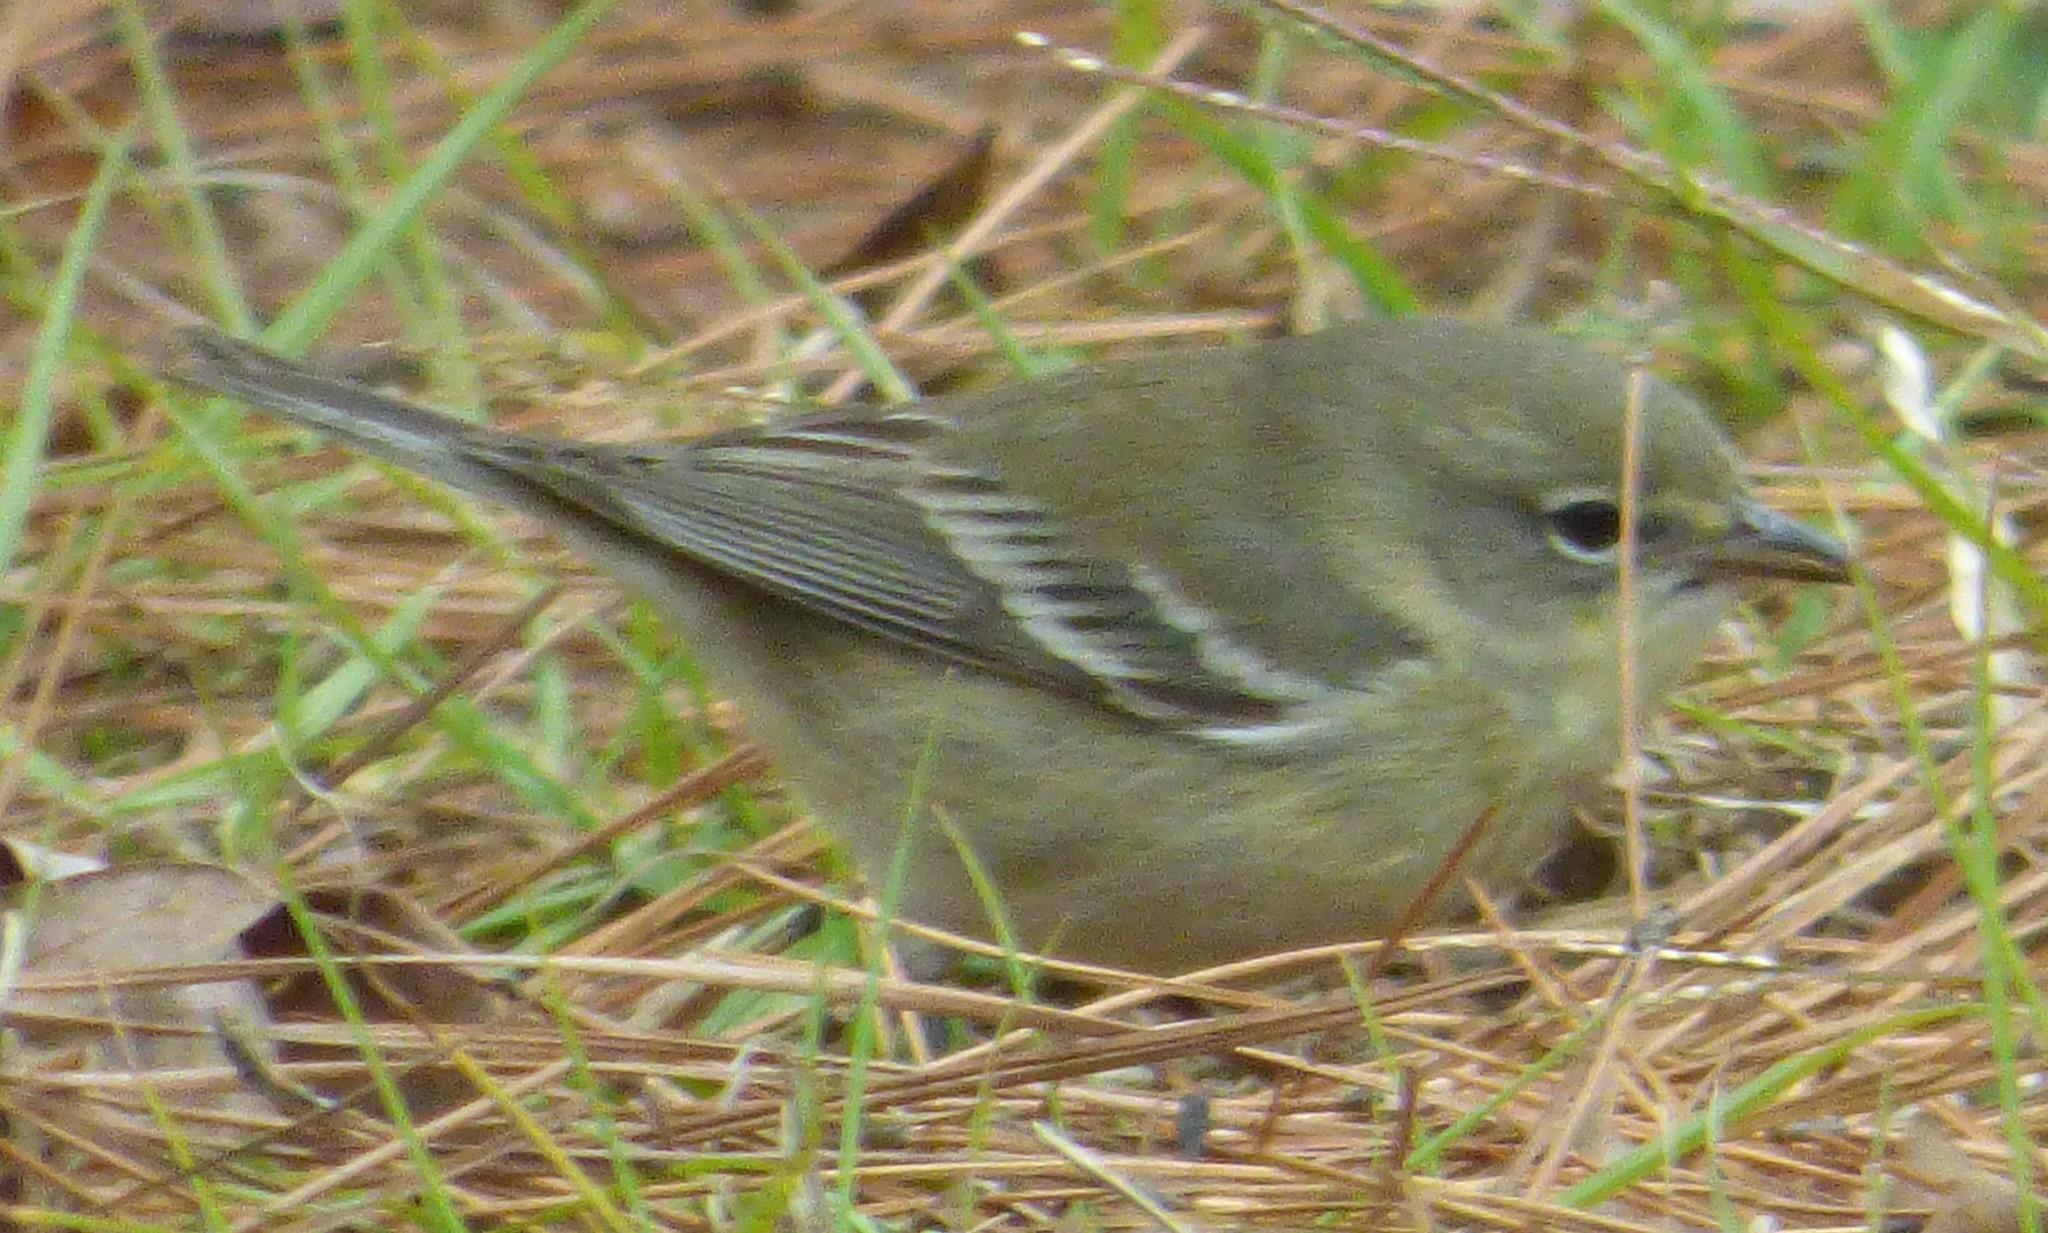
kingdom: Animalia
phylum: Chordata
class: Aves
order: Passeriformes
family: Parulidae
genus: Setophaga
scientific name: Setophaga pinus
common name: Pine warbler
